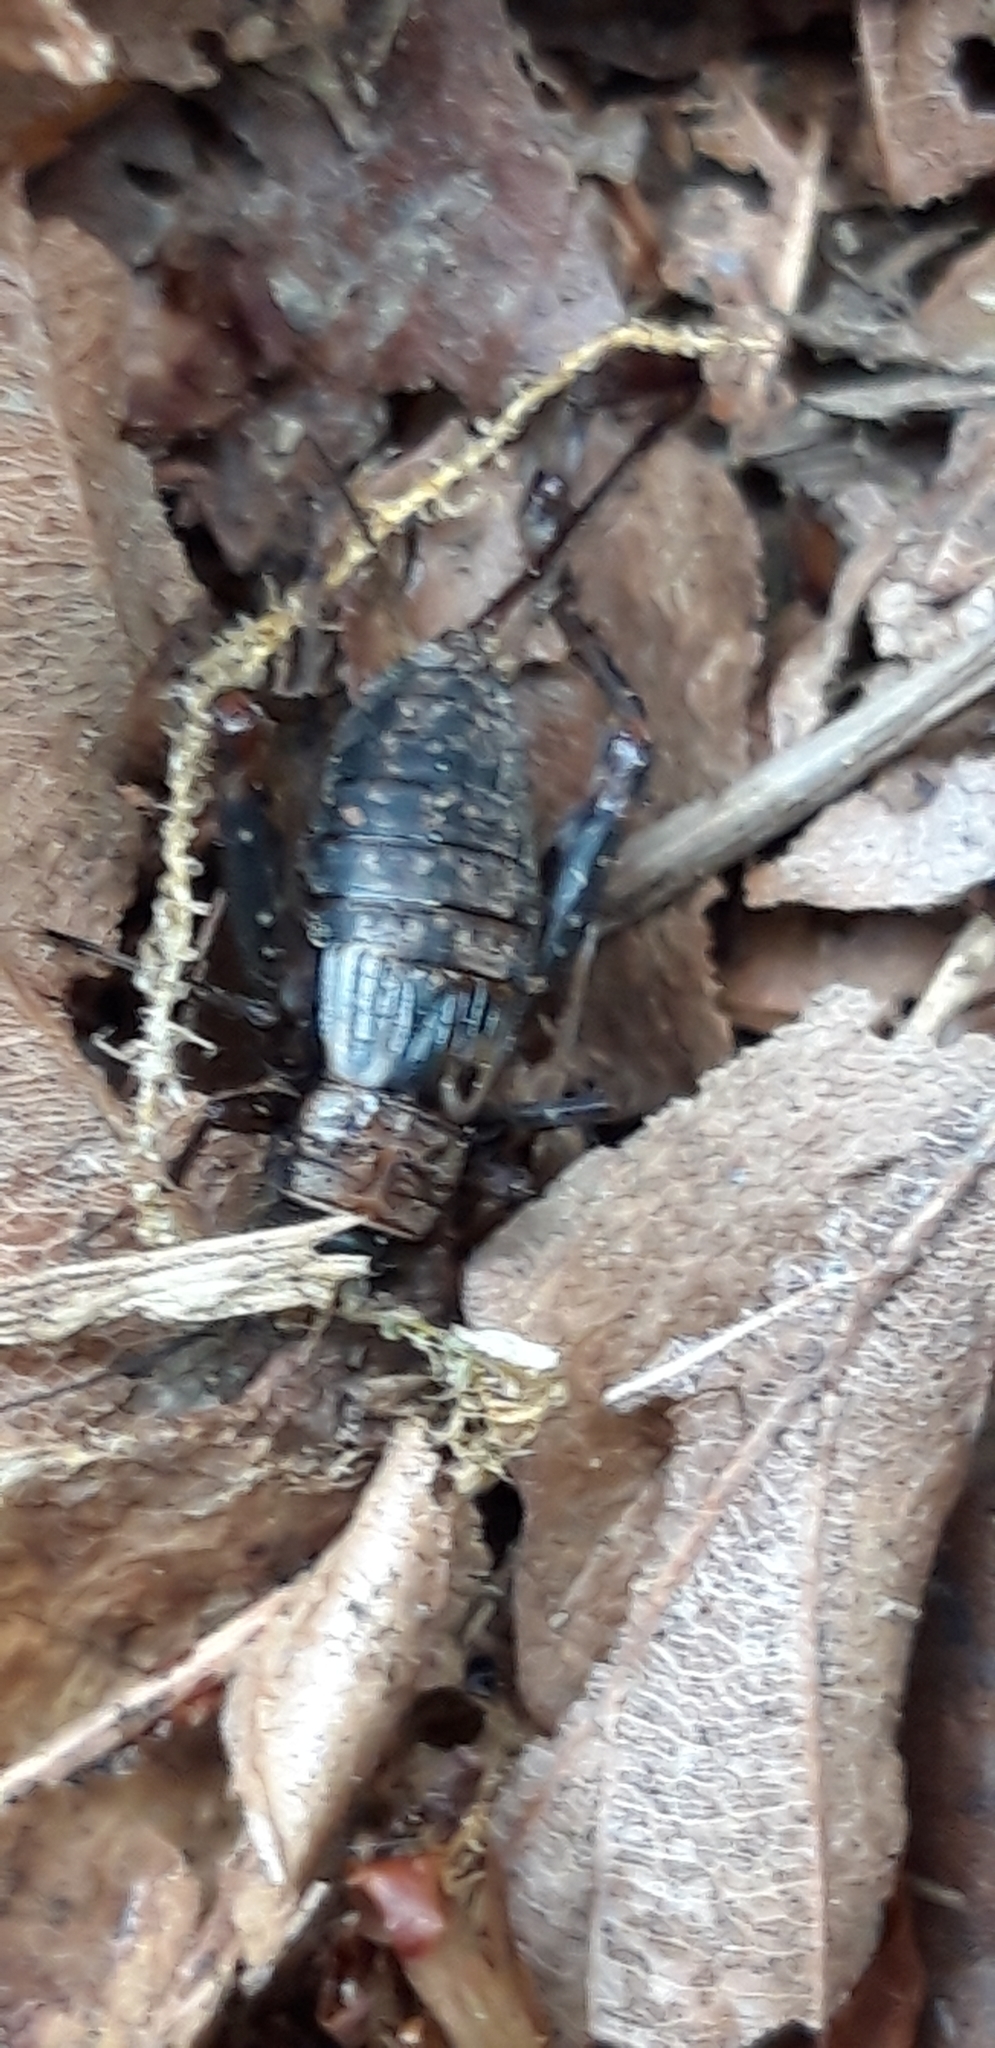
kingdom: Animalia
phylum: Arthropoda
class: Insecta
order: Orthoptera
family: Trigonidiidae
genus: Nemobius
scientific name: Nemobius sylvestris
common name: Wood-cricket
